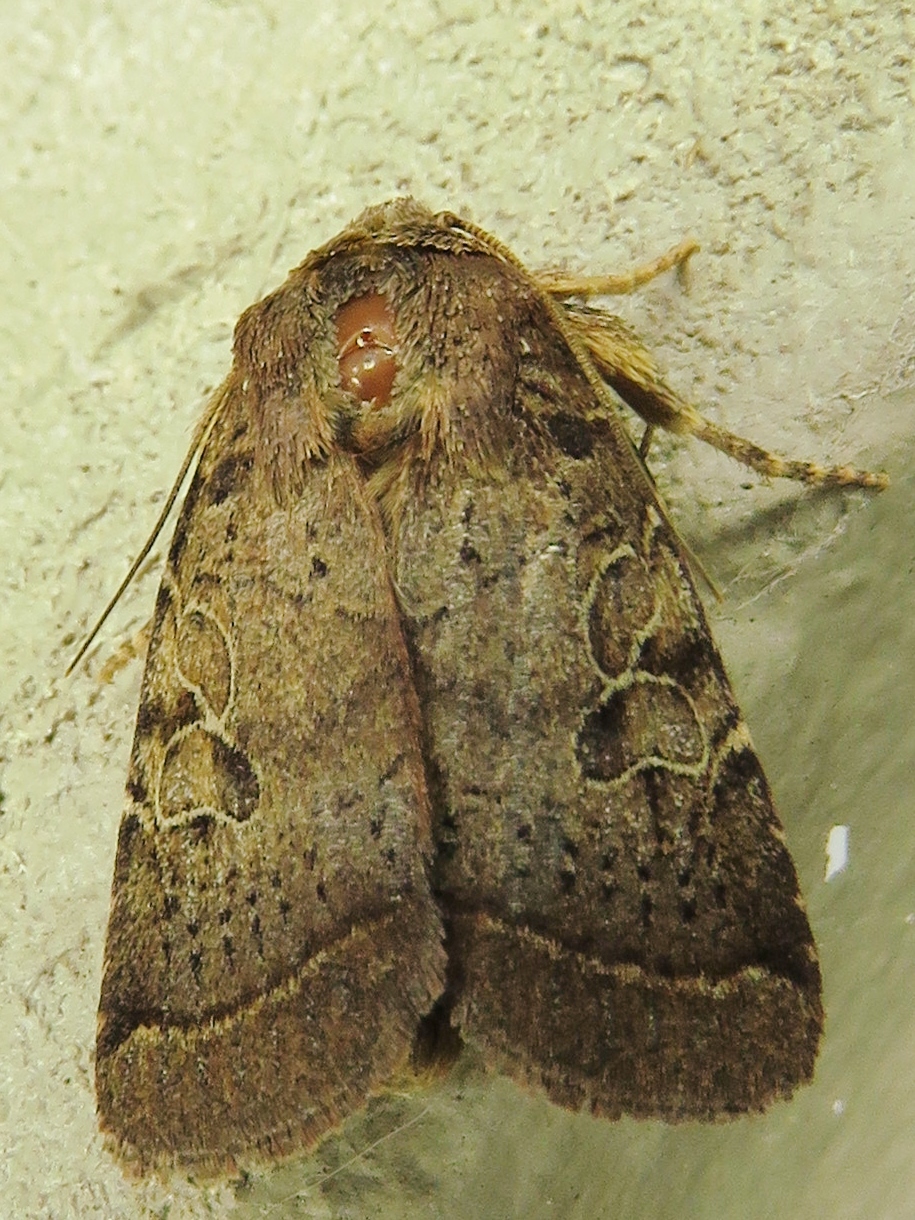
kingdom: Animalia
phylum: Arthropoda
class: Insecta
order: Lepidoptera
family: Noctuidae
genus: Orthodes
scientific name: Orthodes furtiva
